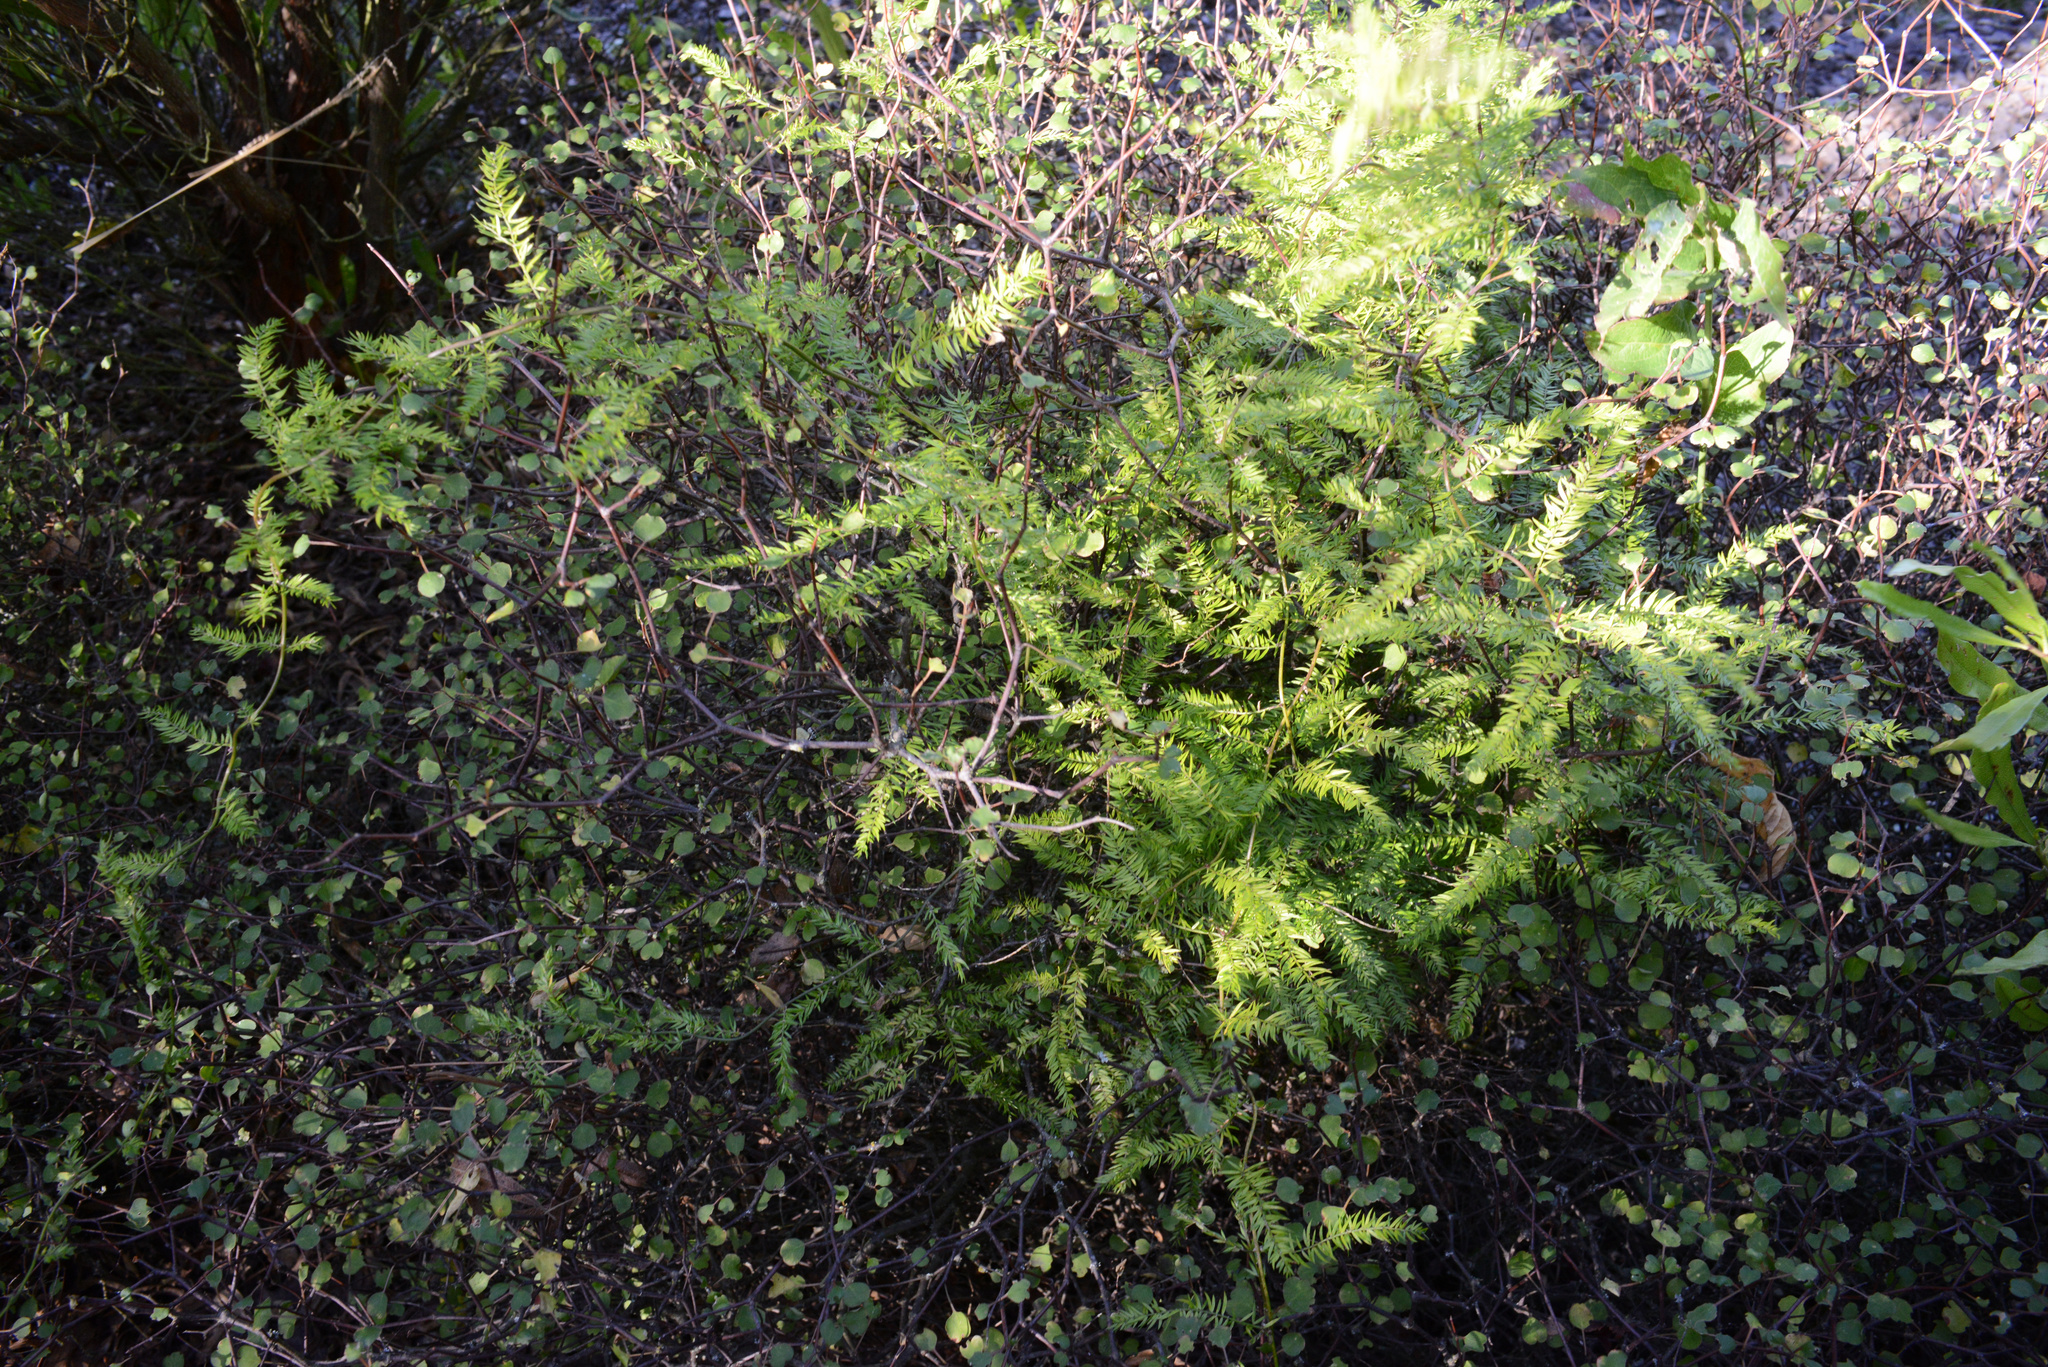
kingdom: Plantae
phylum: Tracheophyta
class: Liliopsida
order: Asparagales
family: Asparagaceae
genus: Asparagus
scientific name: Asparagus scandens
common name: Asparagus-fern
